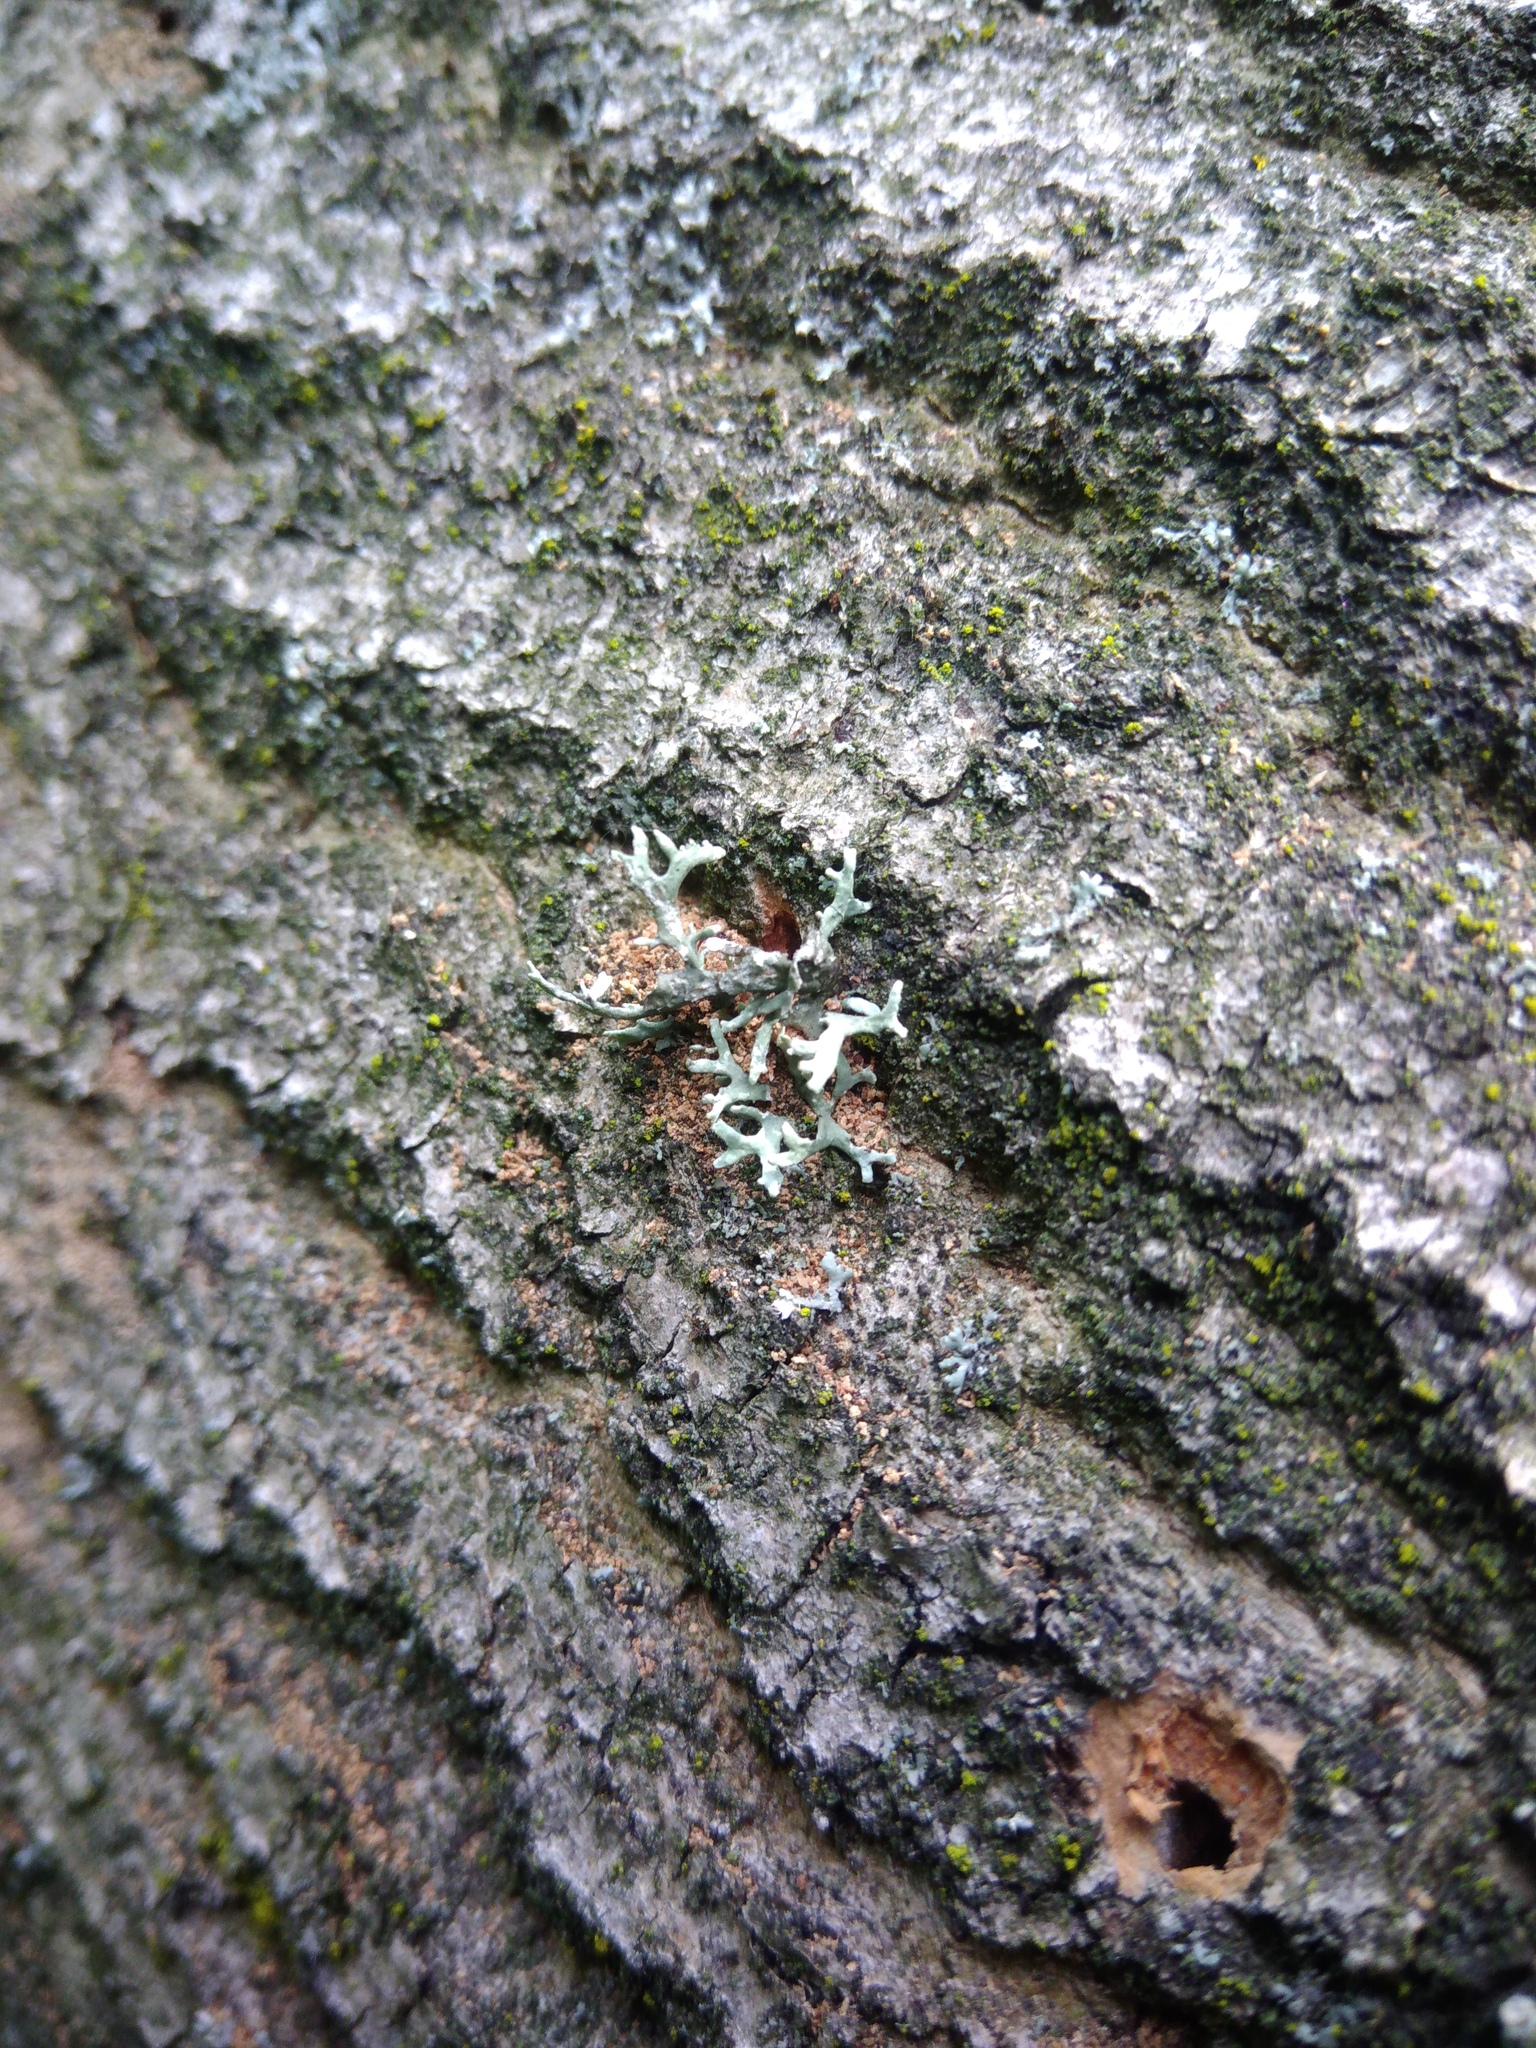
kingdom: Fungi
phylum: Ascomycota
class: Lecanoromycetes
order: Lecanorales
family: Parmeliaceae
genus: Evernia
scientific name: Evernia prunastri
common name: Oak moss
